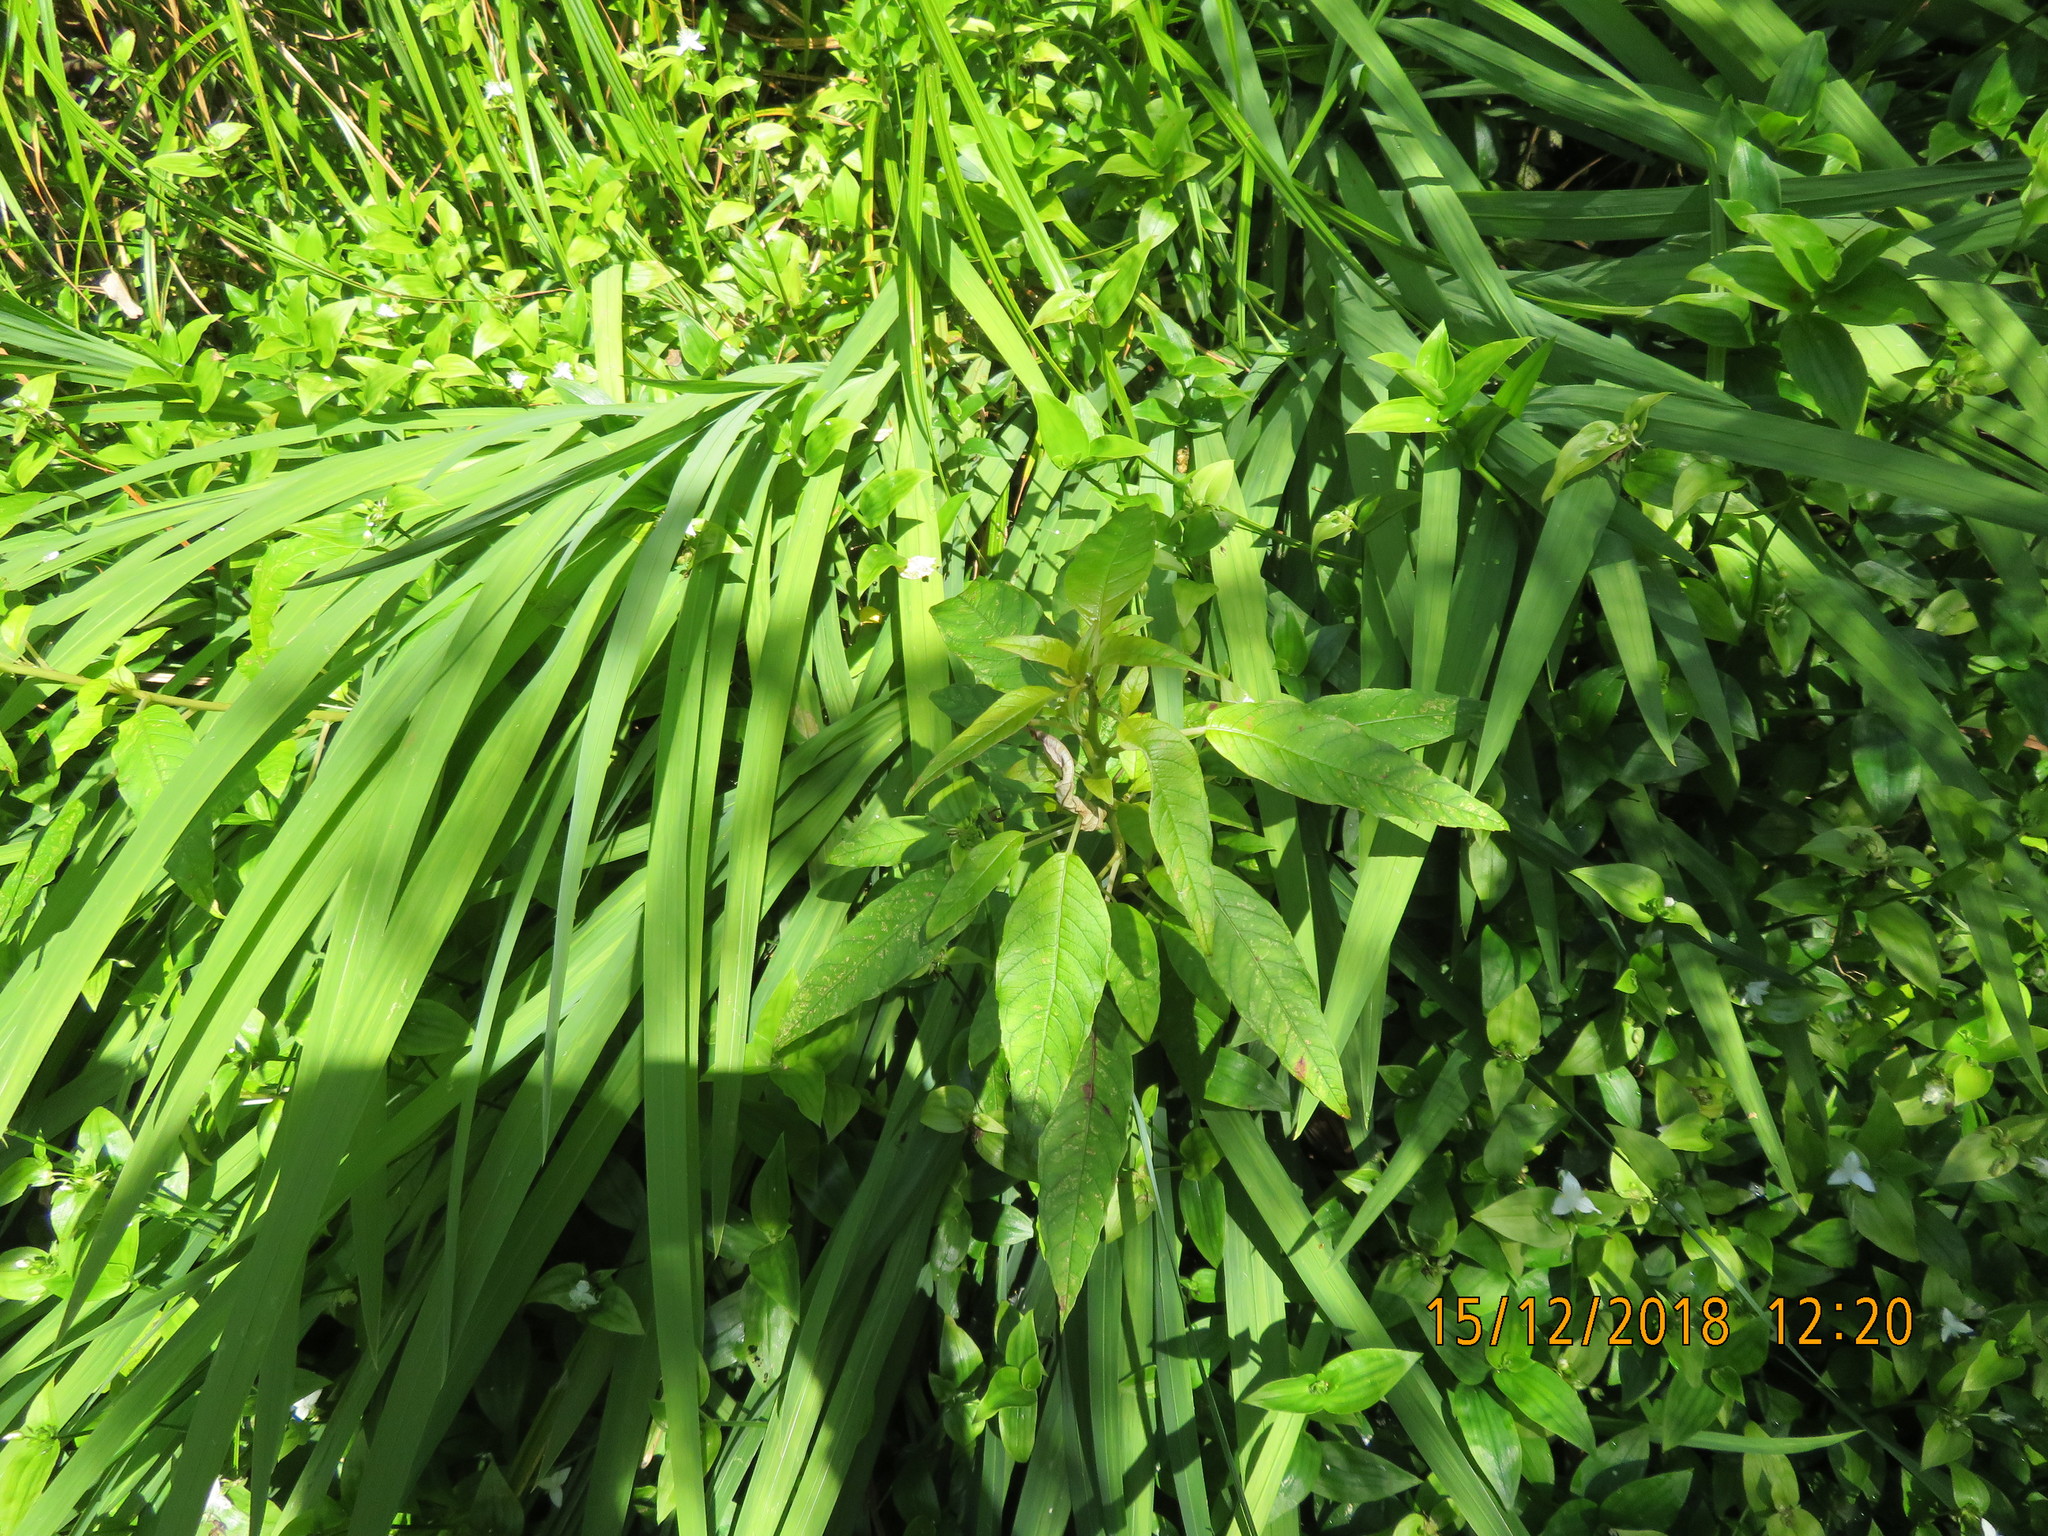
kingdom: Plantae
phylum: Tracheophyta
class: Magnoliopsida
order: Myrtales
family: Onagraceae
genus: Fuchsia
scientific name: Fuchsia excorticata
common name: Tree fuchsia
